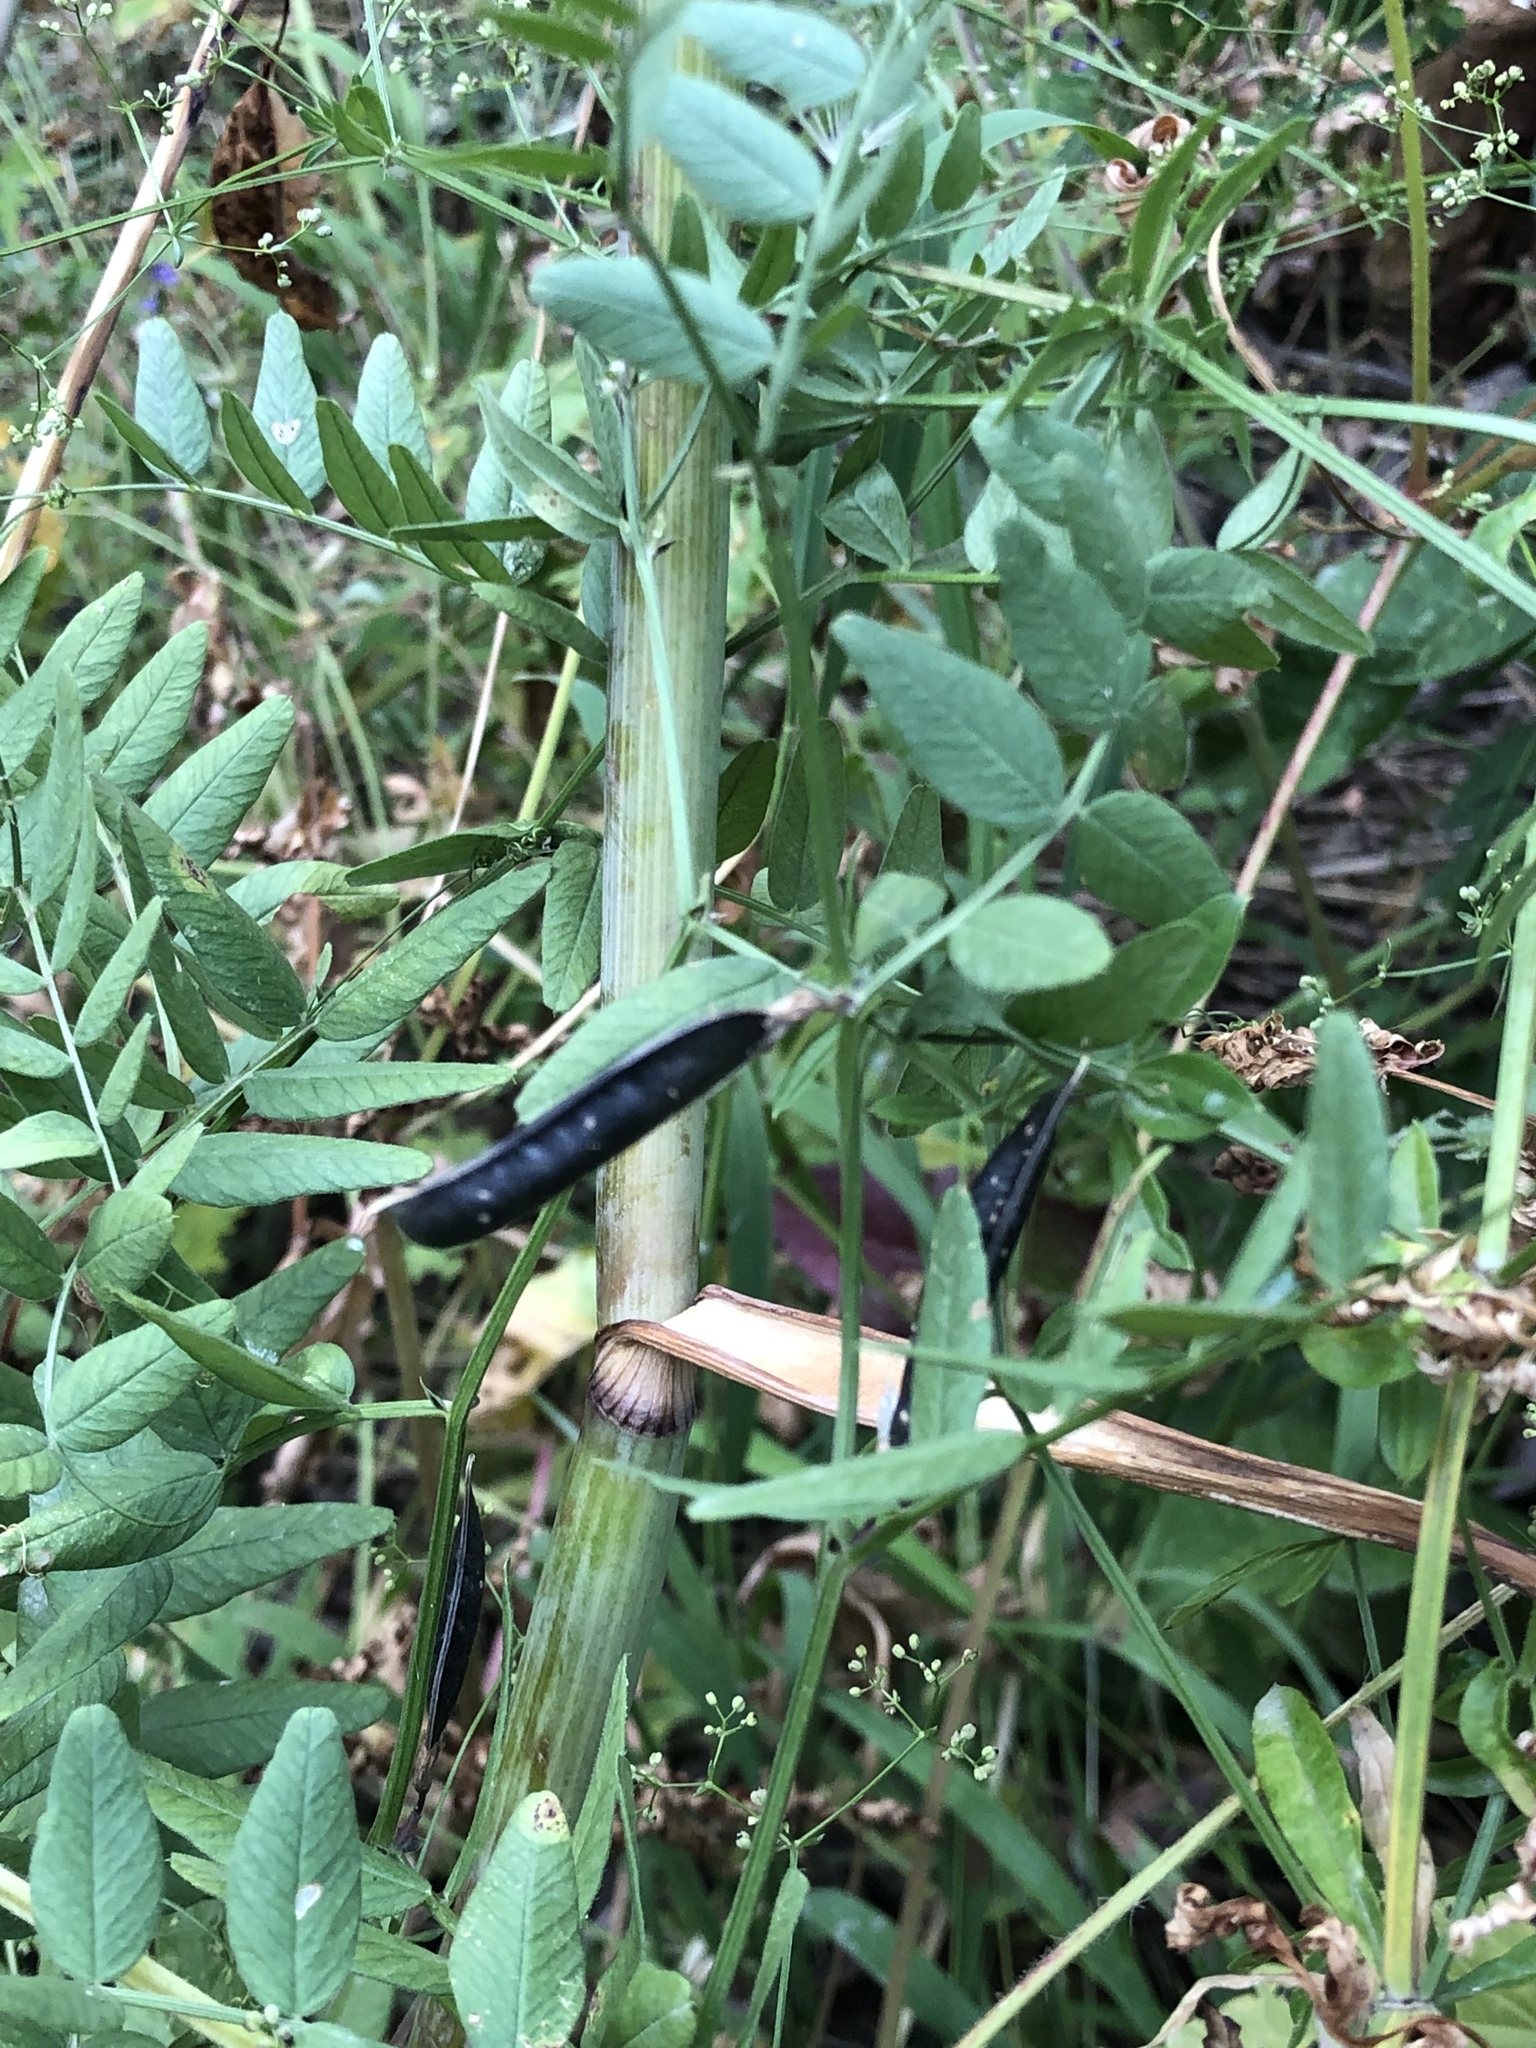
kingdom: Plantae
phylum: Tracheophyta
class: Magnoliopsida
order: Fabales
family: Fabaceae
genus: Vicia
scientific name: Vicia sepium
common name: Bush vetch
